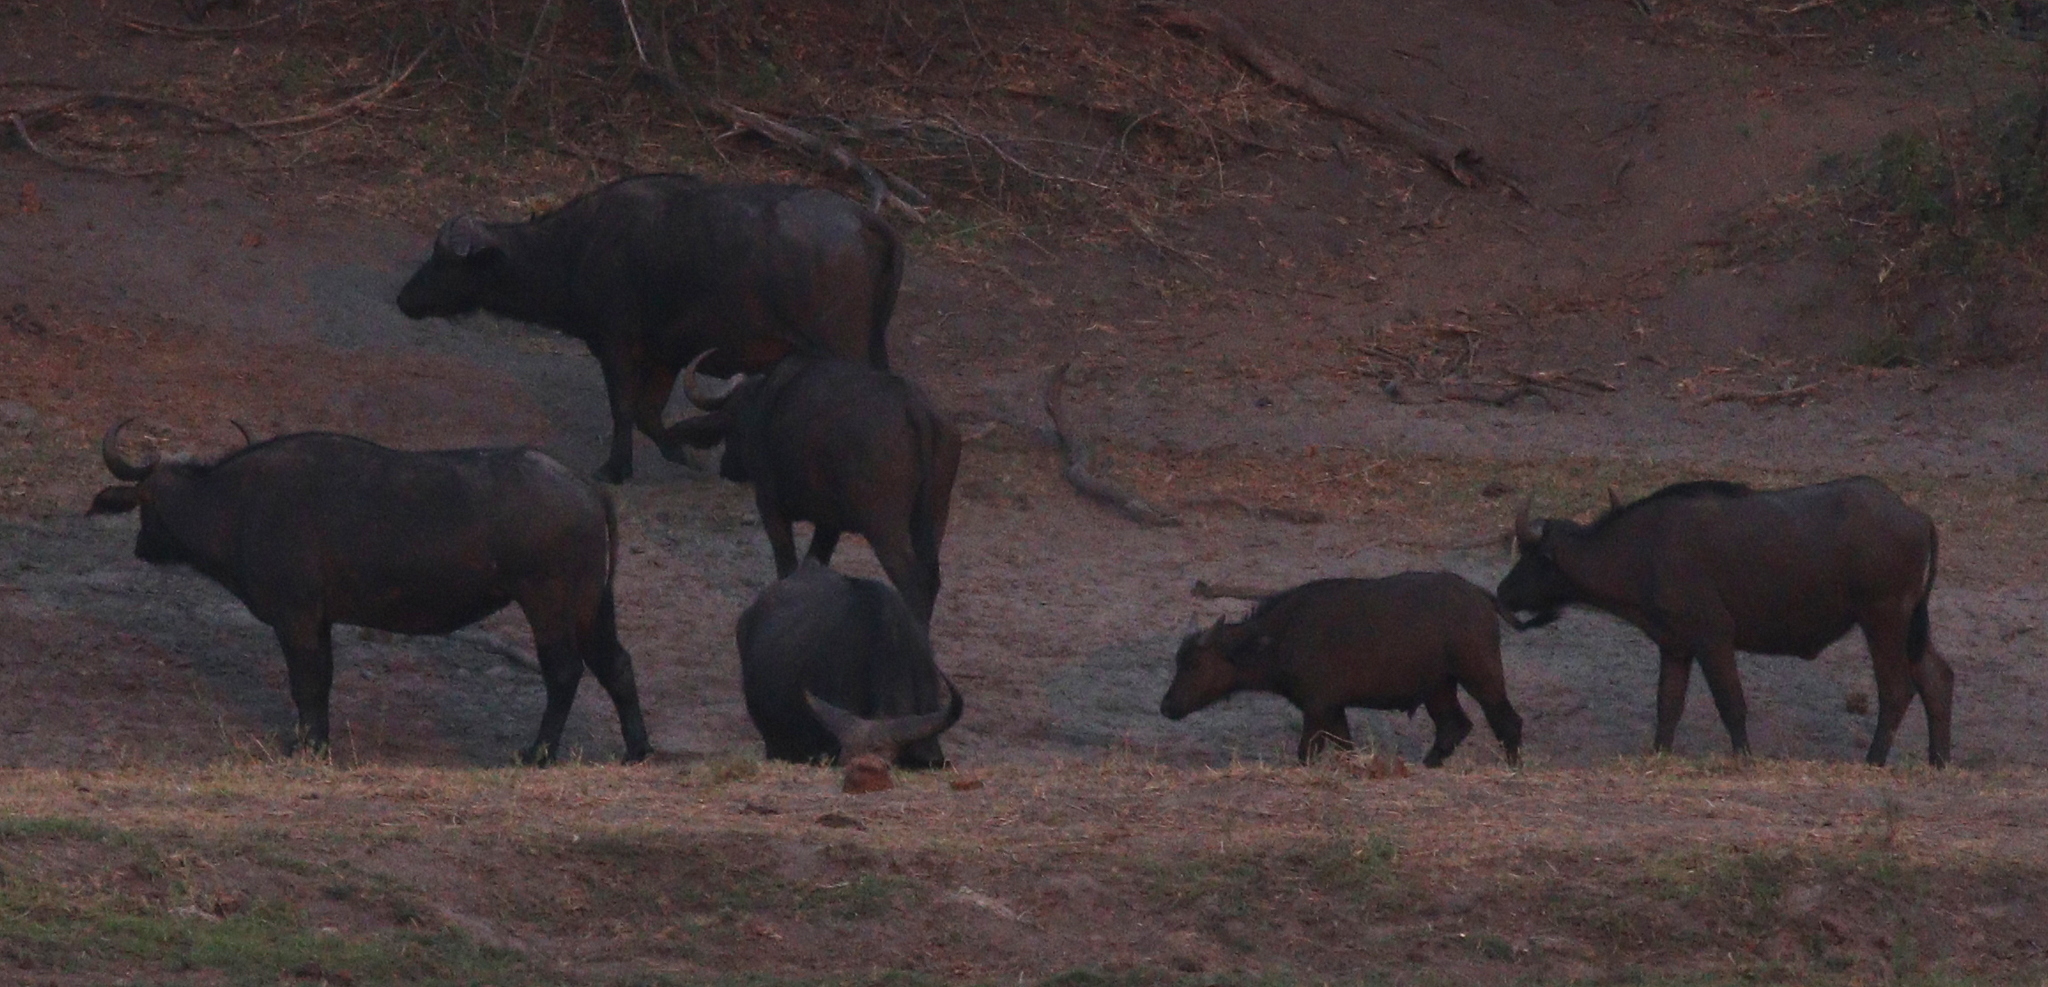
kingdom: Animalia
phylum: Chordata
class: Mammalia
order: Artiodactyla
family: Bovidae
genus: Syncerus
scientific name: Syncerus caffer
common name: African buffalo
